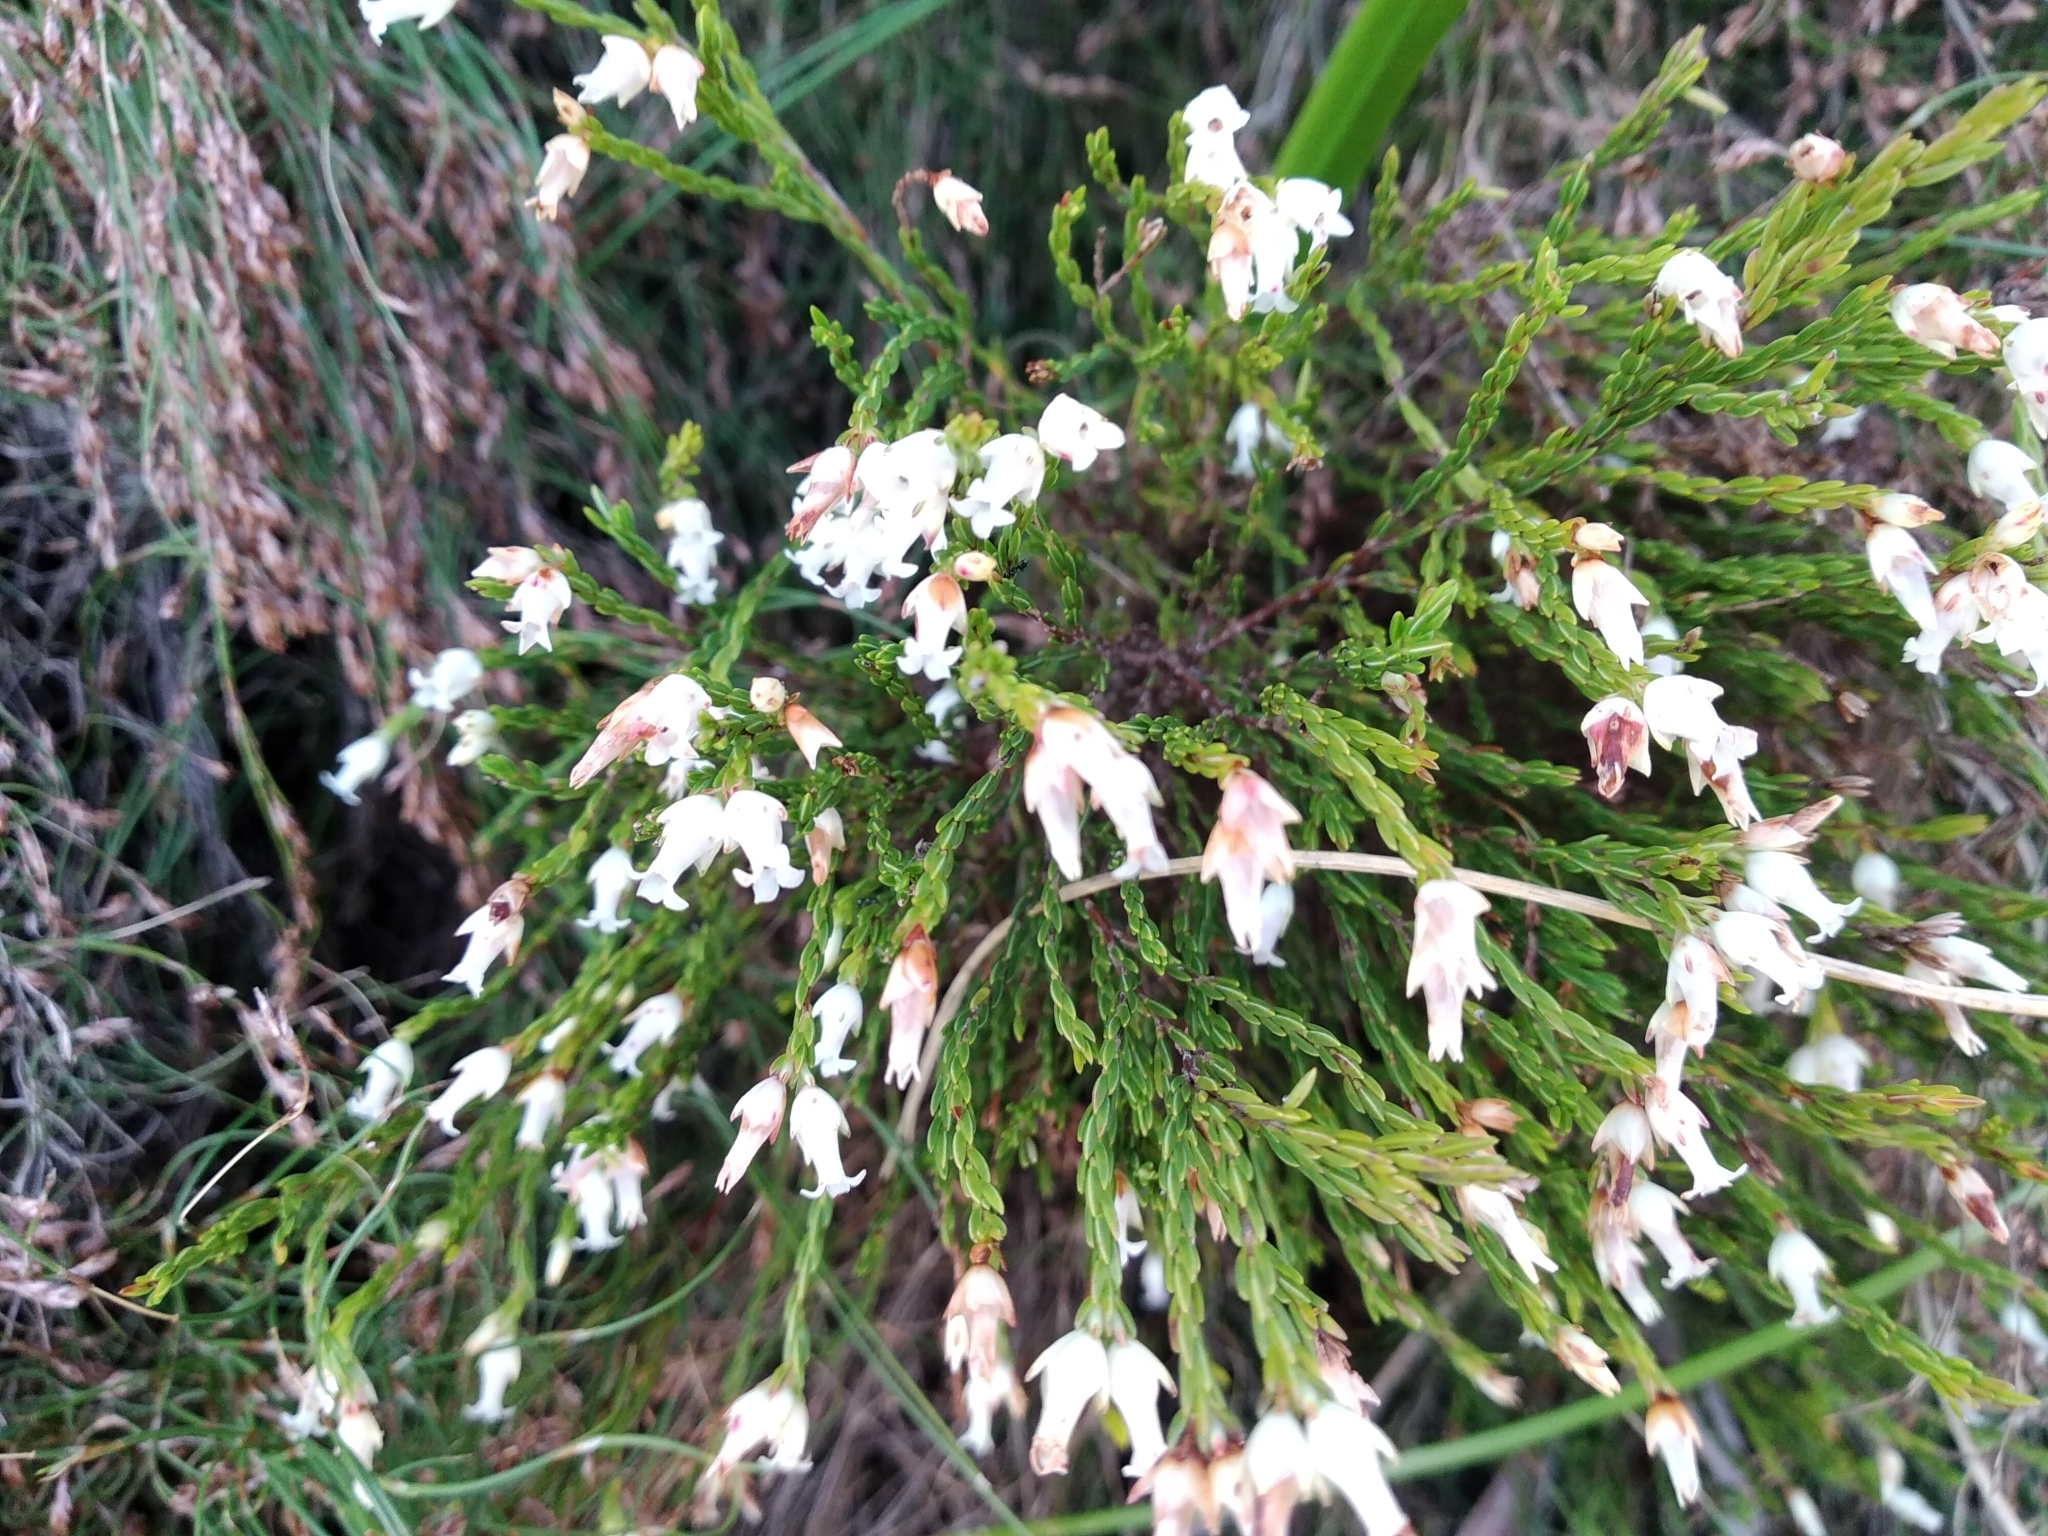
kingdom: Plantae
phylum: Tracheophyta
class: Magnoliopsida
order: Ericales
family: Ericaceae
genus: Erica
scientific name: Erica lutea
